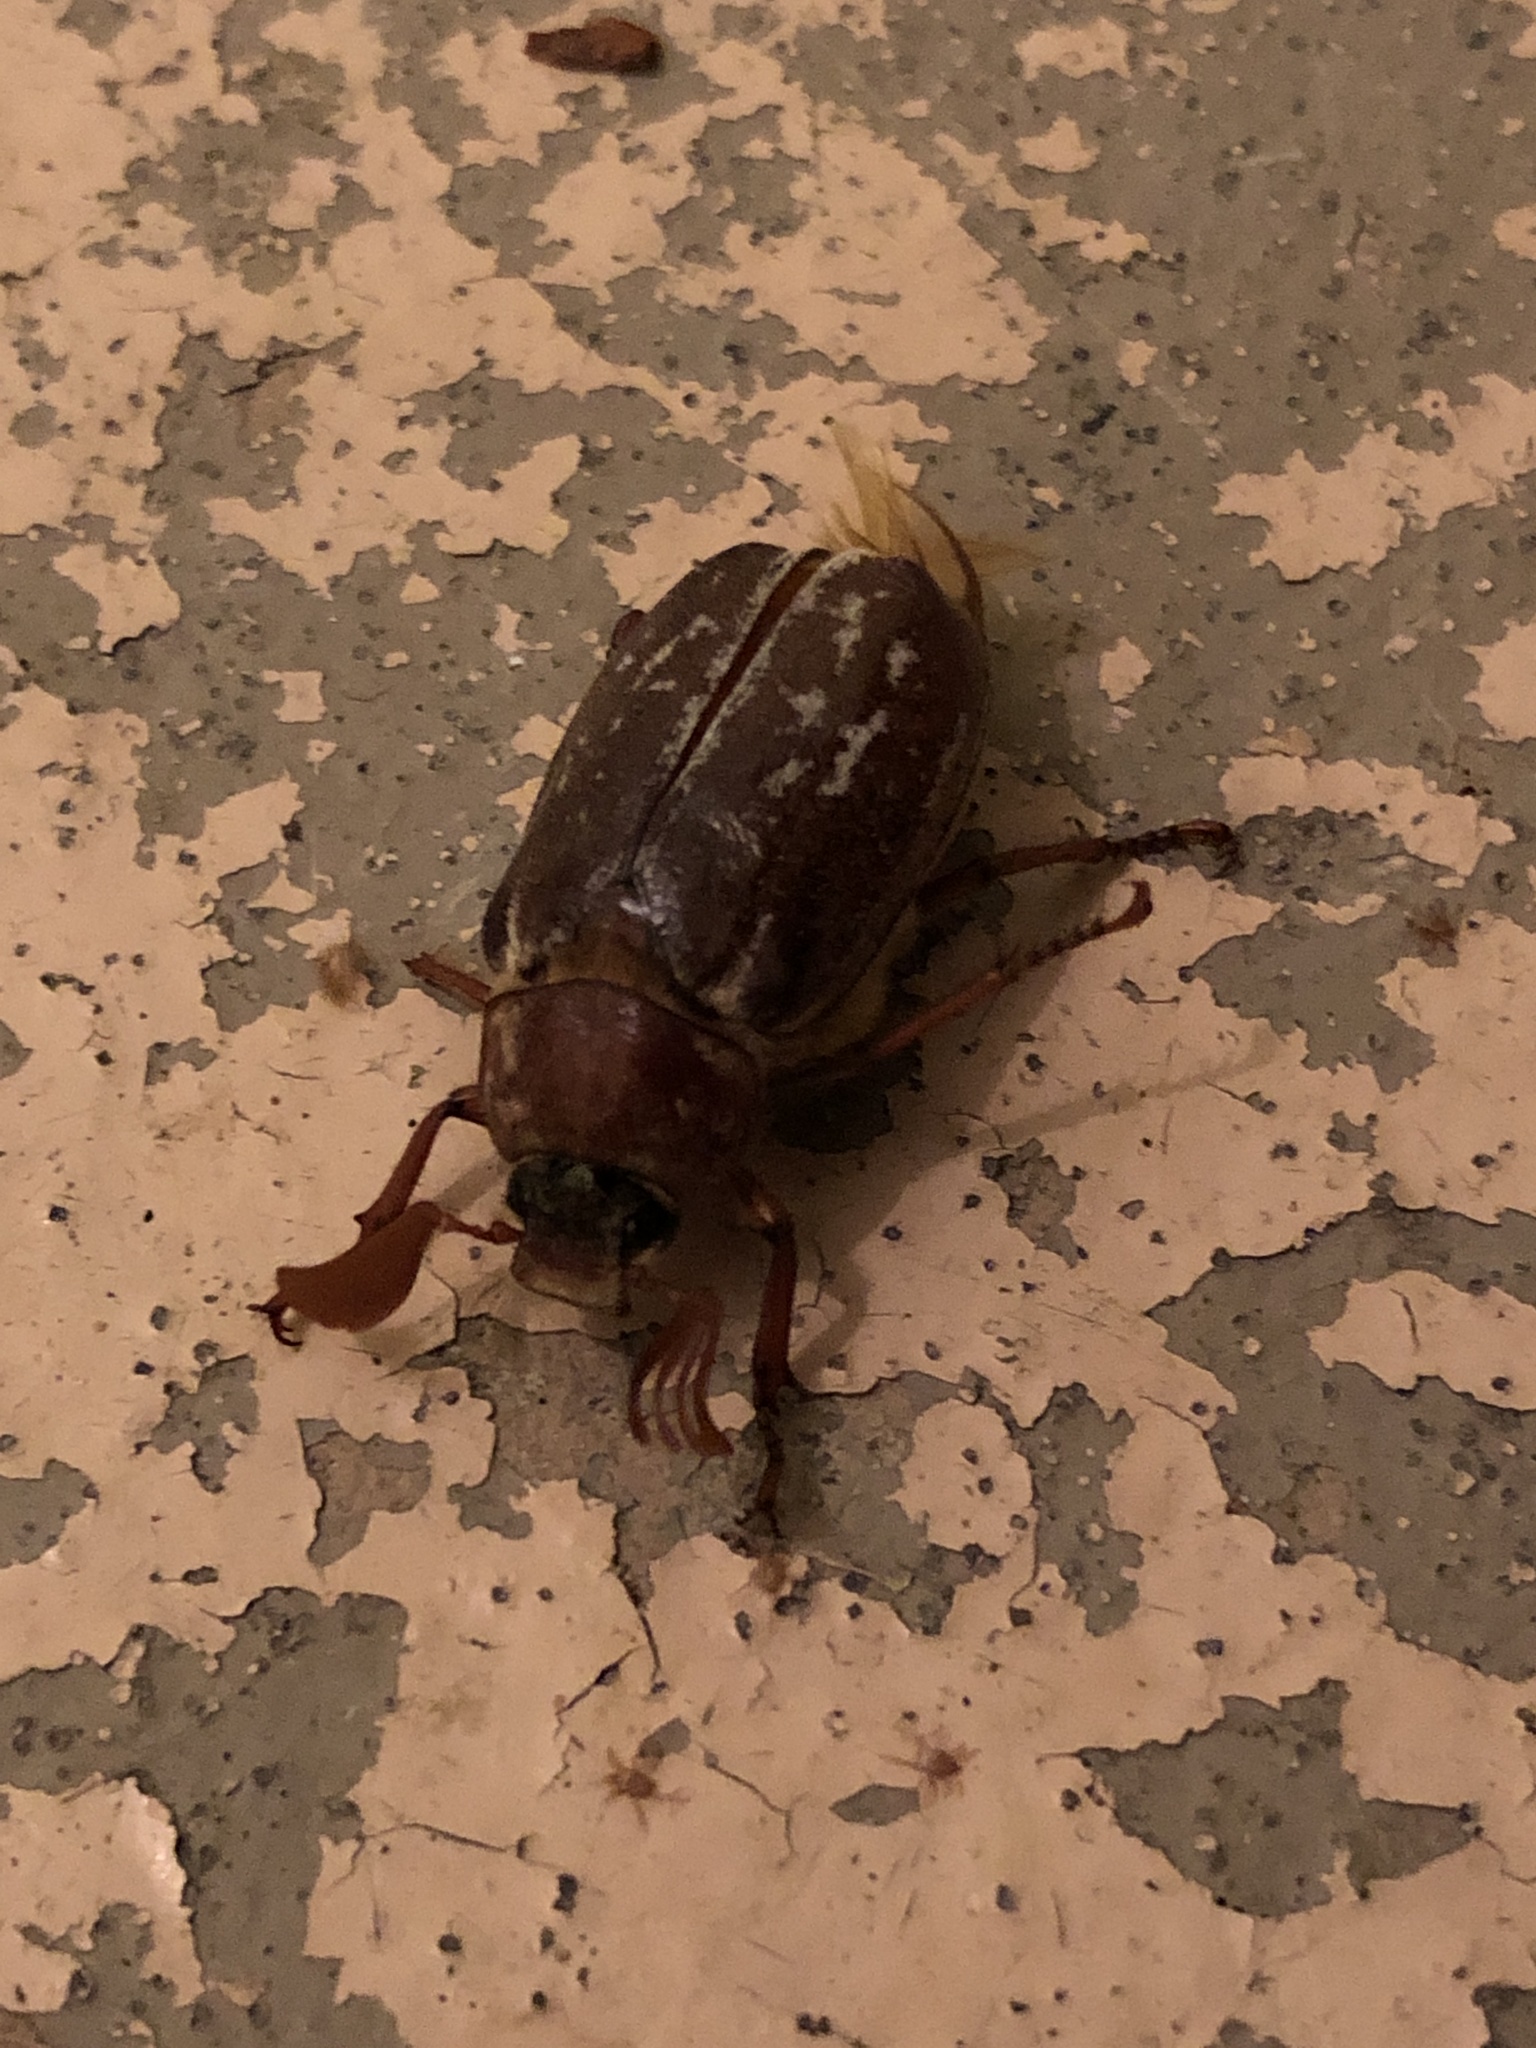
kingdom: Animalia
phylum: Arthropoda
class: Insecta
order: Coleoptera
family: Scarabaeidae
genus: Polyphylla
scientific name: Polyphylla variolosa
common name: Variegated june beetle
